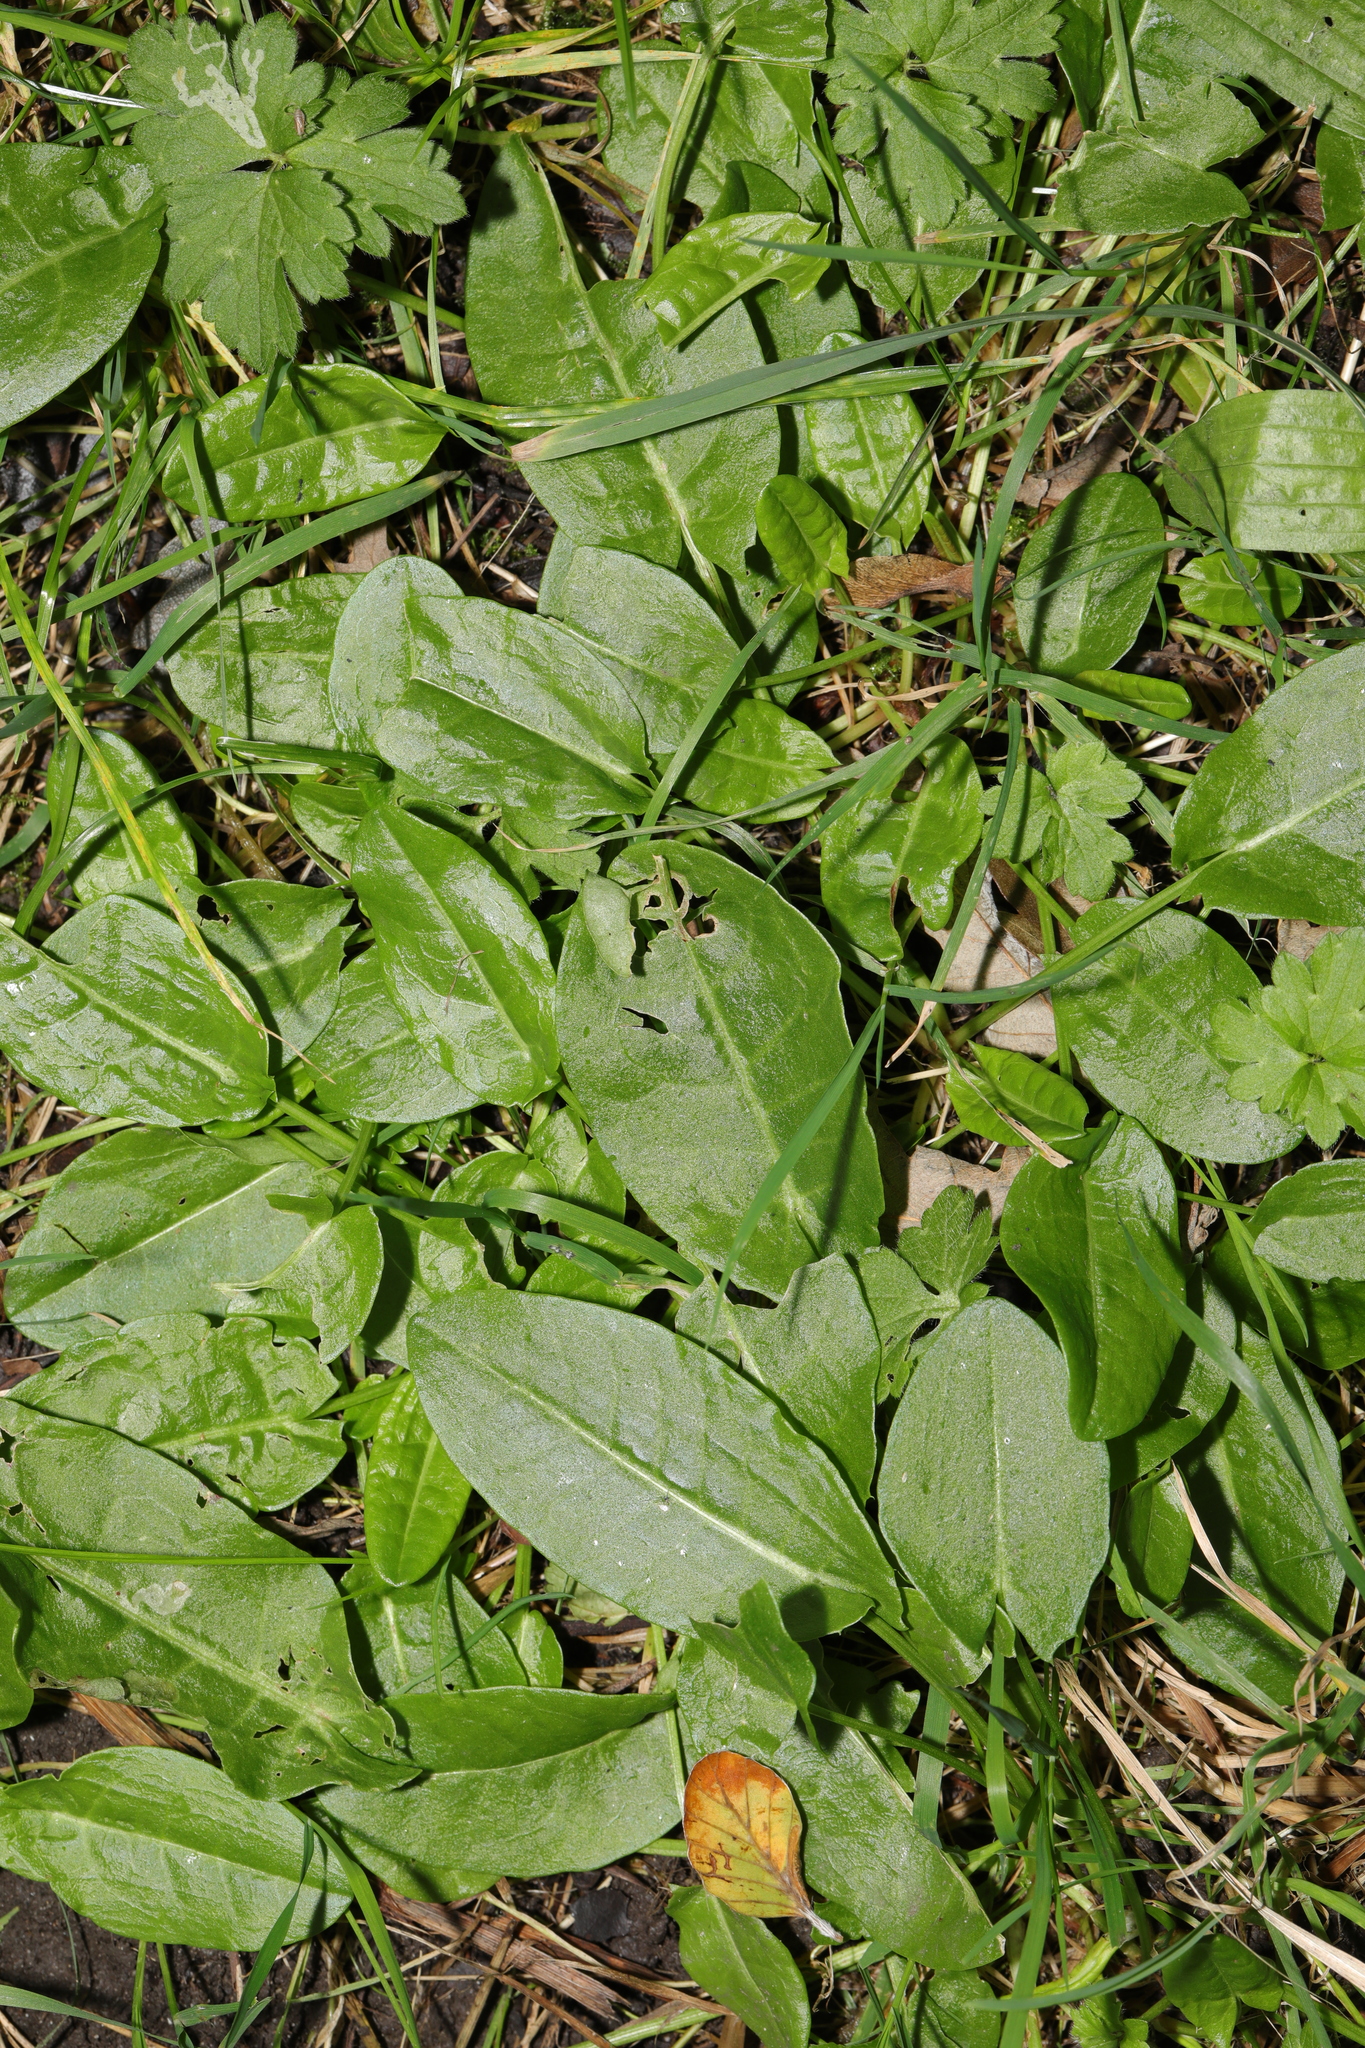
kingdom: Plantae
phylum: Tracheophyta
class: Magnoliopsida
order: Caryophyllales
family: Polygonaceae
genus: Rumex
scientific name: Rumex acetosa
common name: Garden sorrel
